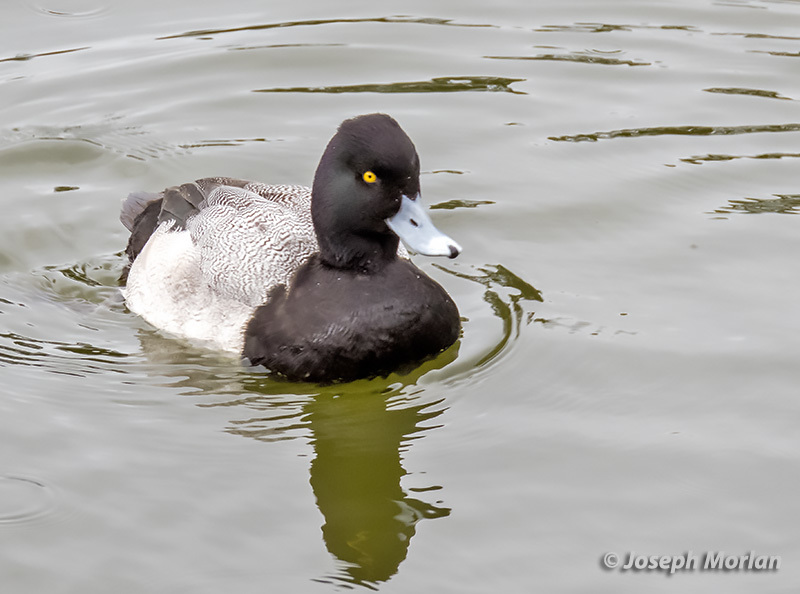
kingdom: Animalia
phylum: Chordata
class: Aves
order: Anseriformes
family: Anatidae
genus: Aythya
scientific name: Aythya affinis
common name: Lesser scaup
